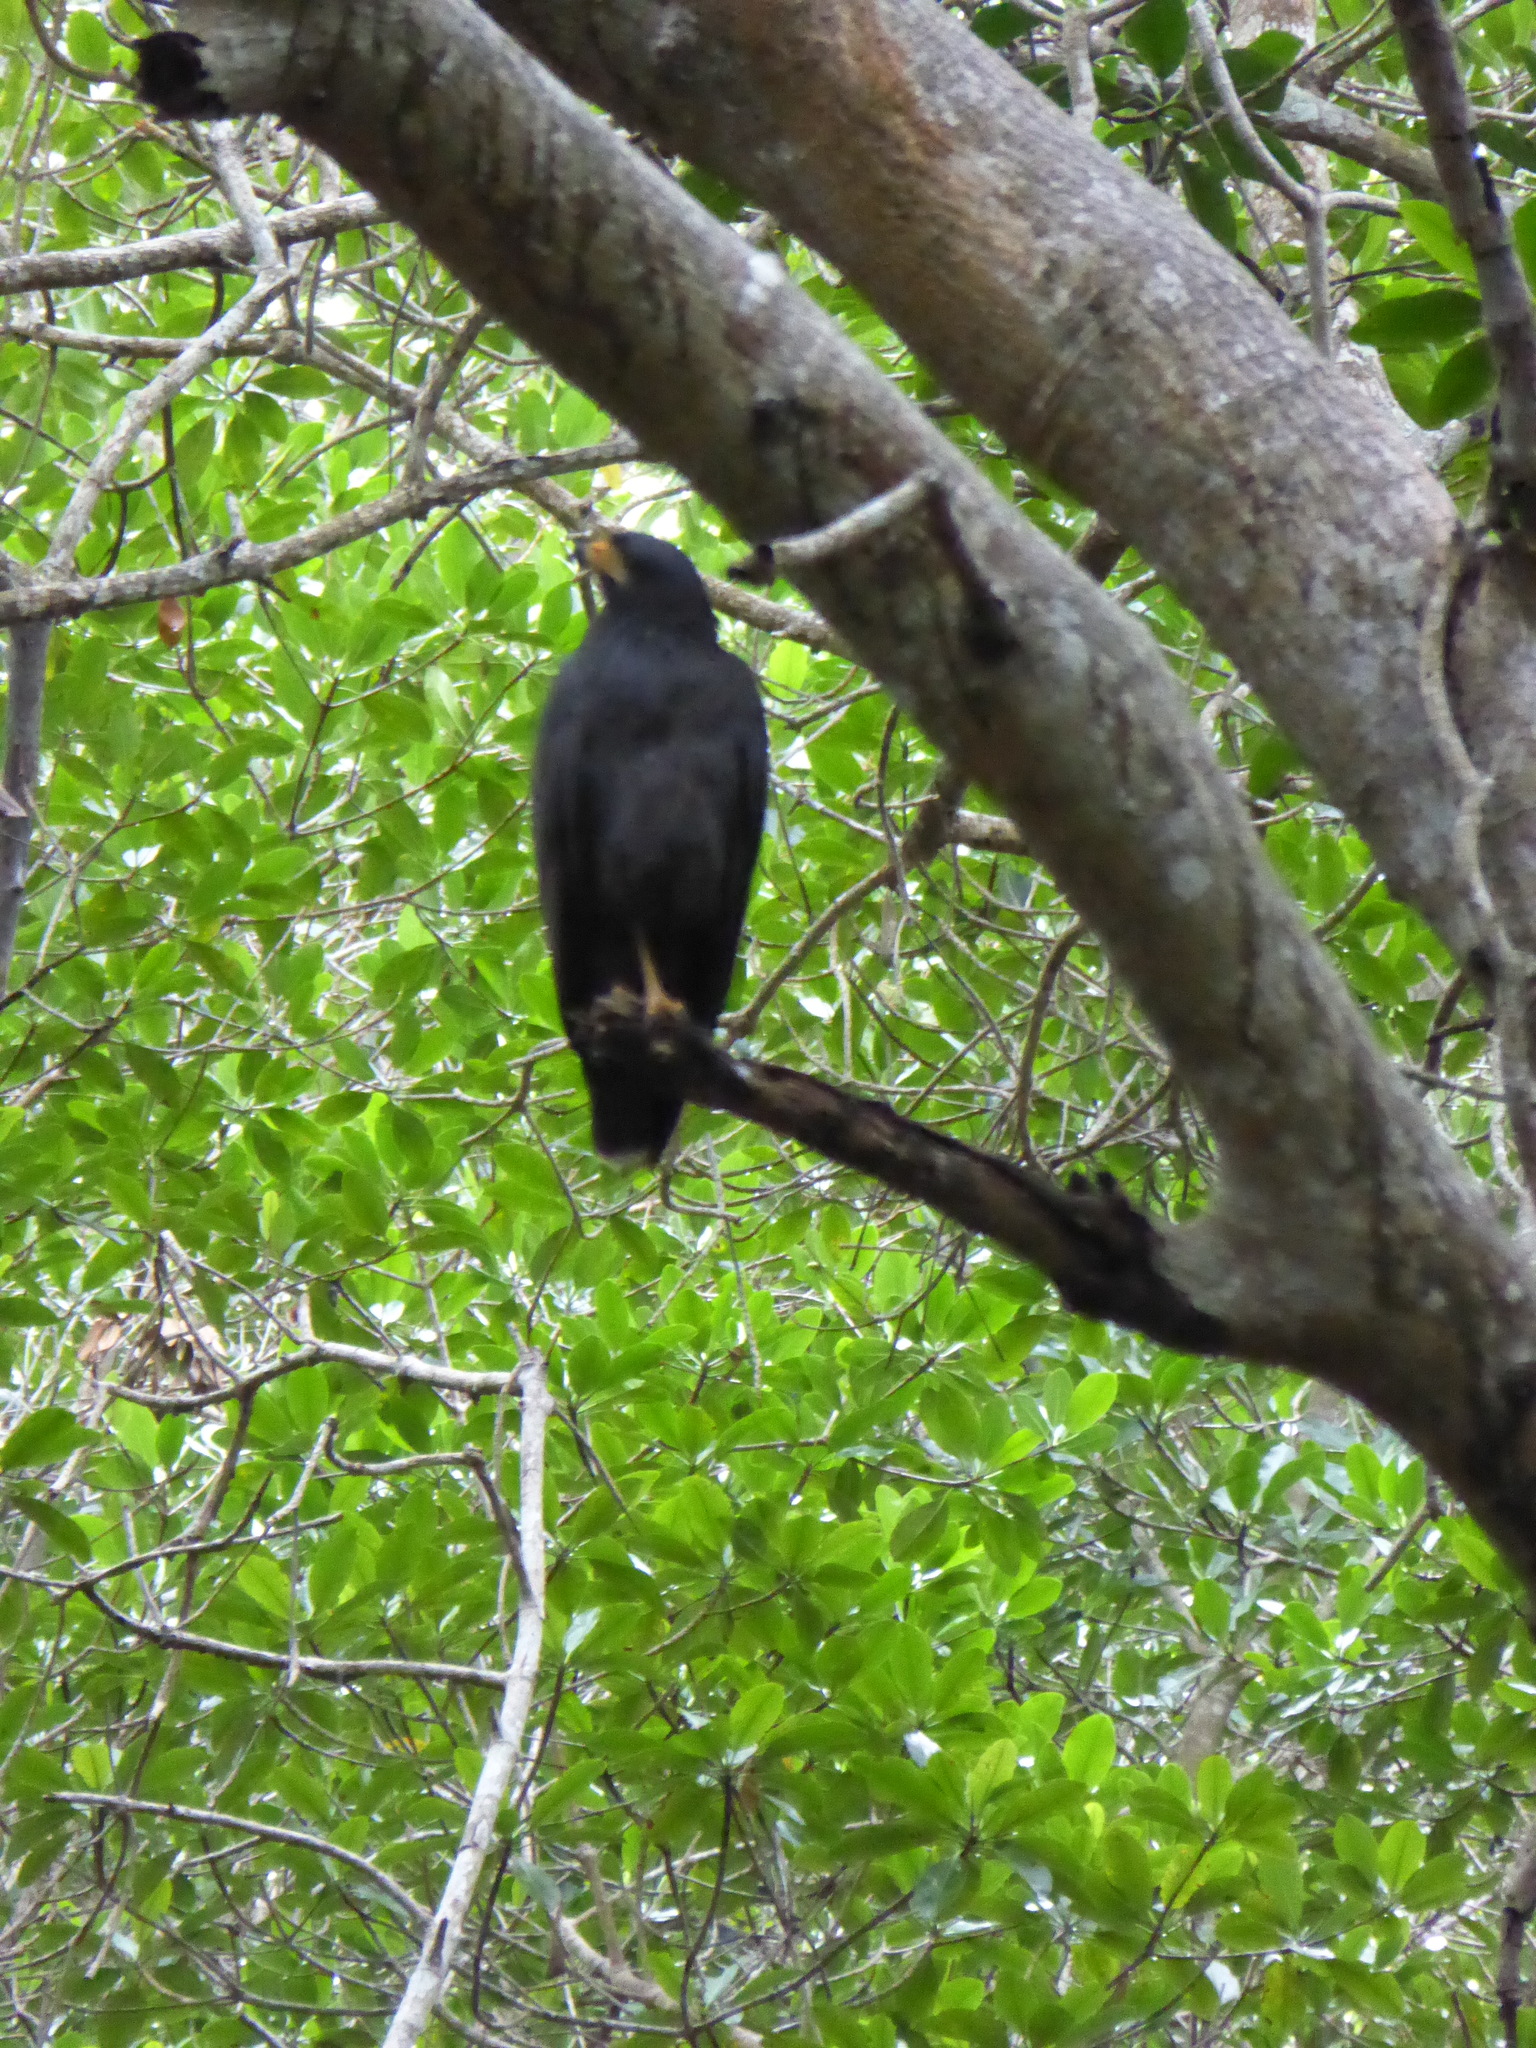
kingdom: Animalia
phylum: Chordata
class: Aves
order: Accipitriformes
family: Accipitridae
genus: Buteogallus
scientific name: Buteogallus anthracinus
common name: Common black hawk
